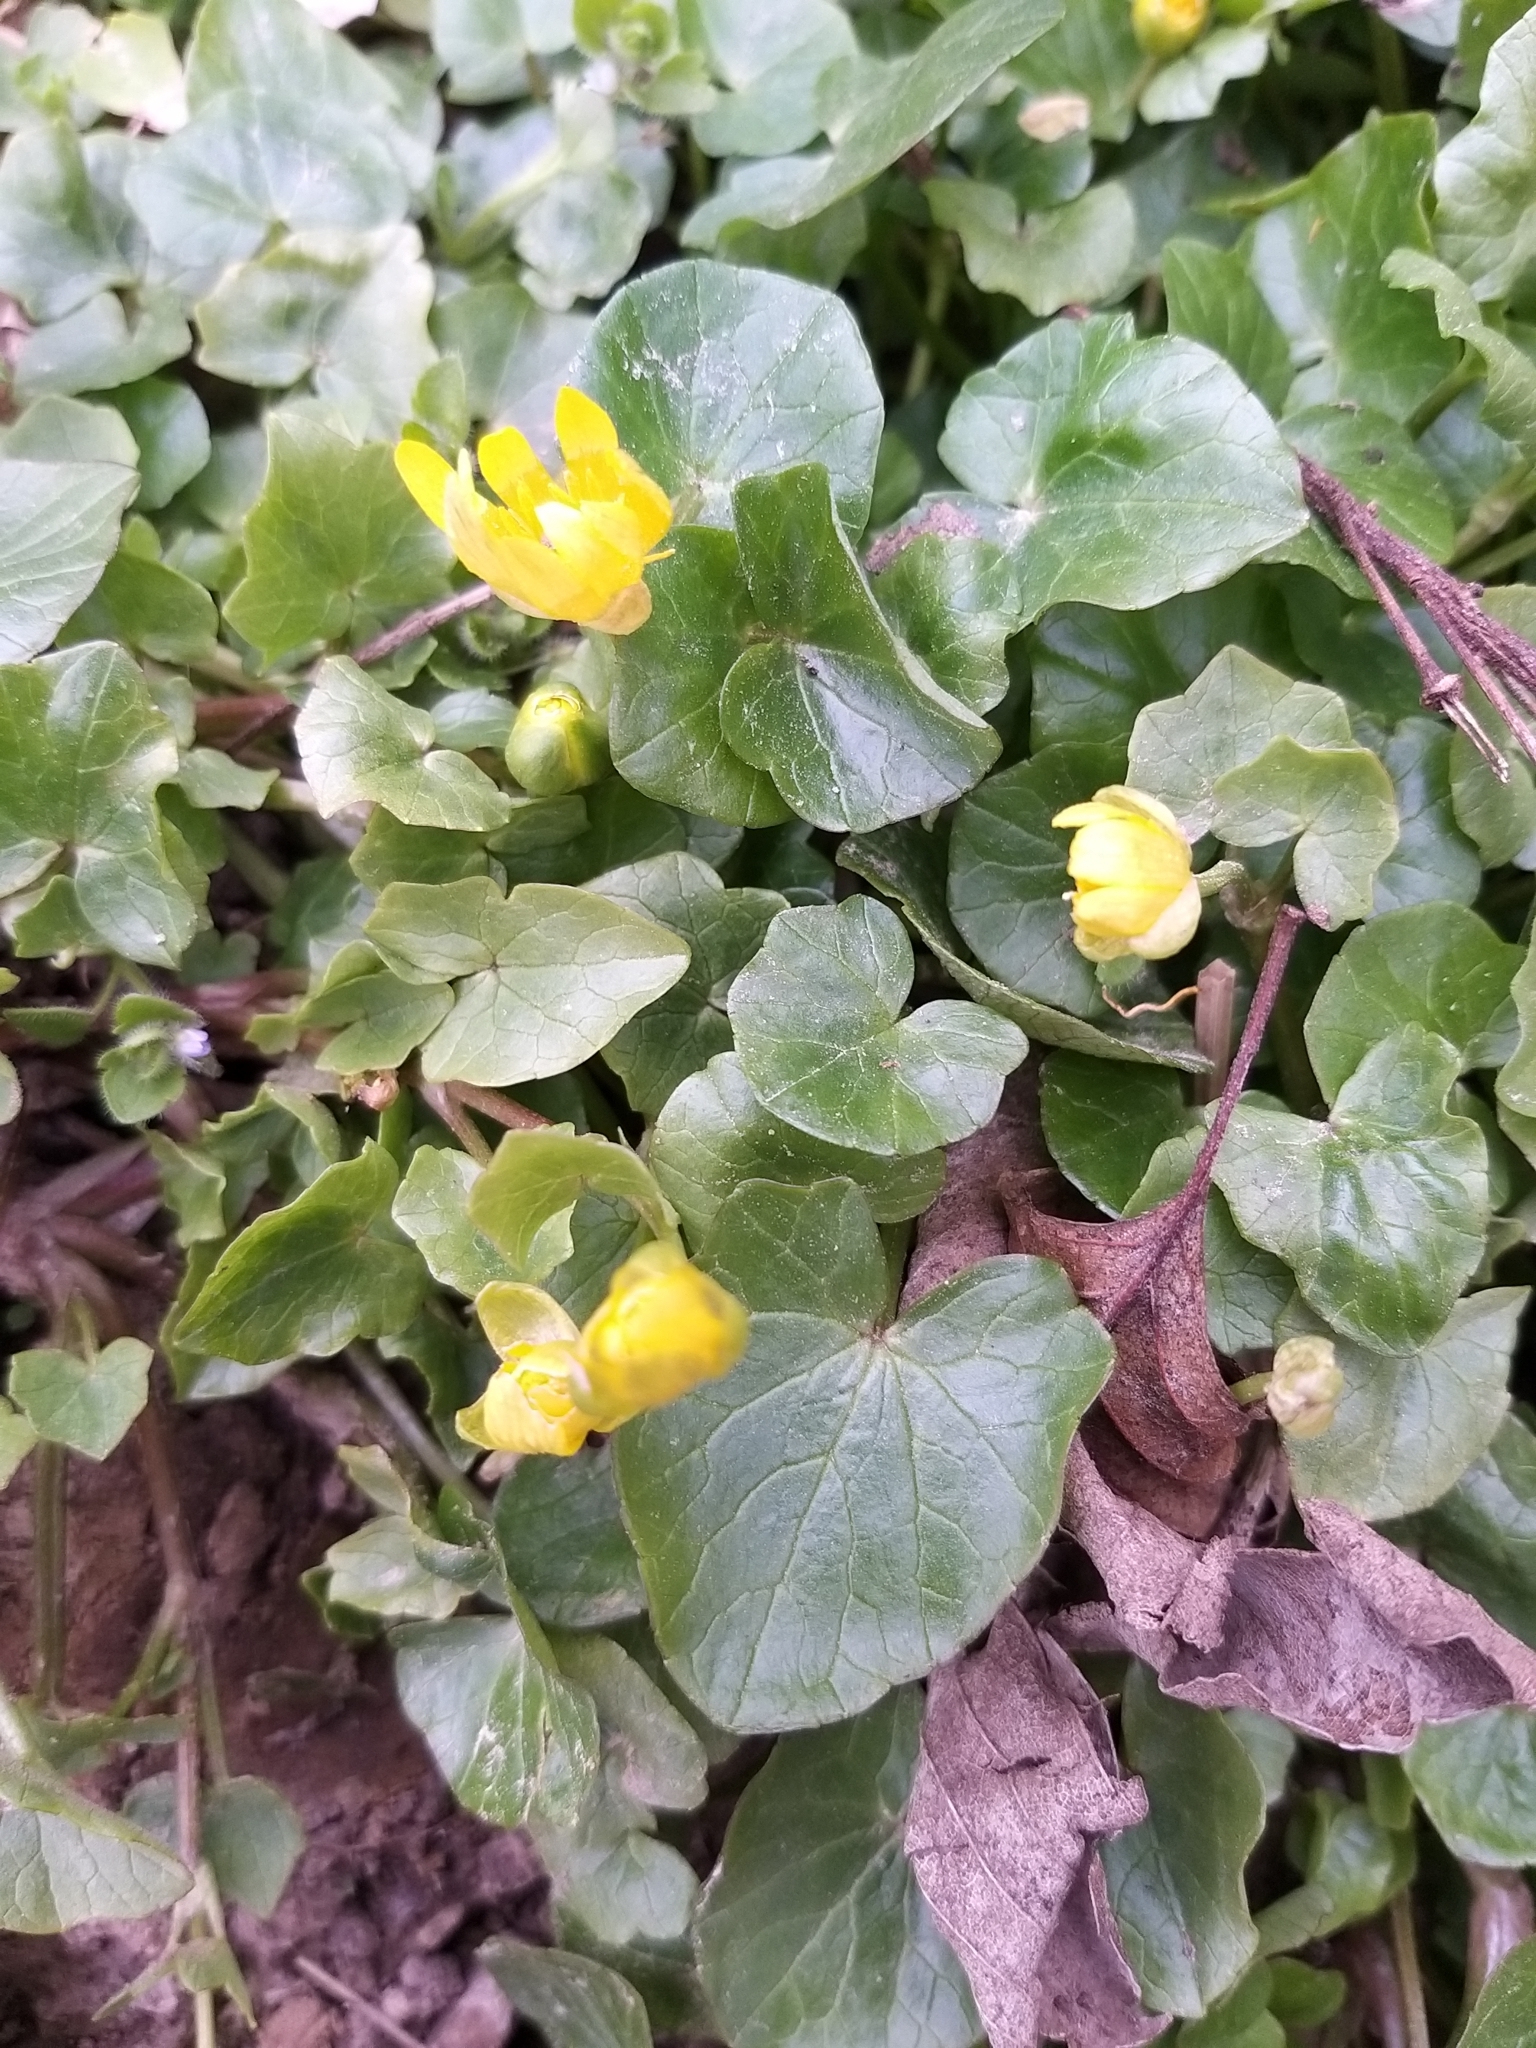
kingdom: Plantae
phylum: Tracheophyta
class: Magnoliopsida
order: Ranunculales
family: Ranunculaceae
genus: Ficaria
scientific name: Ficaria verna
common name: Lesser celandine
